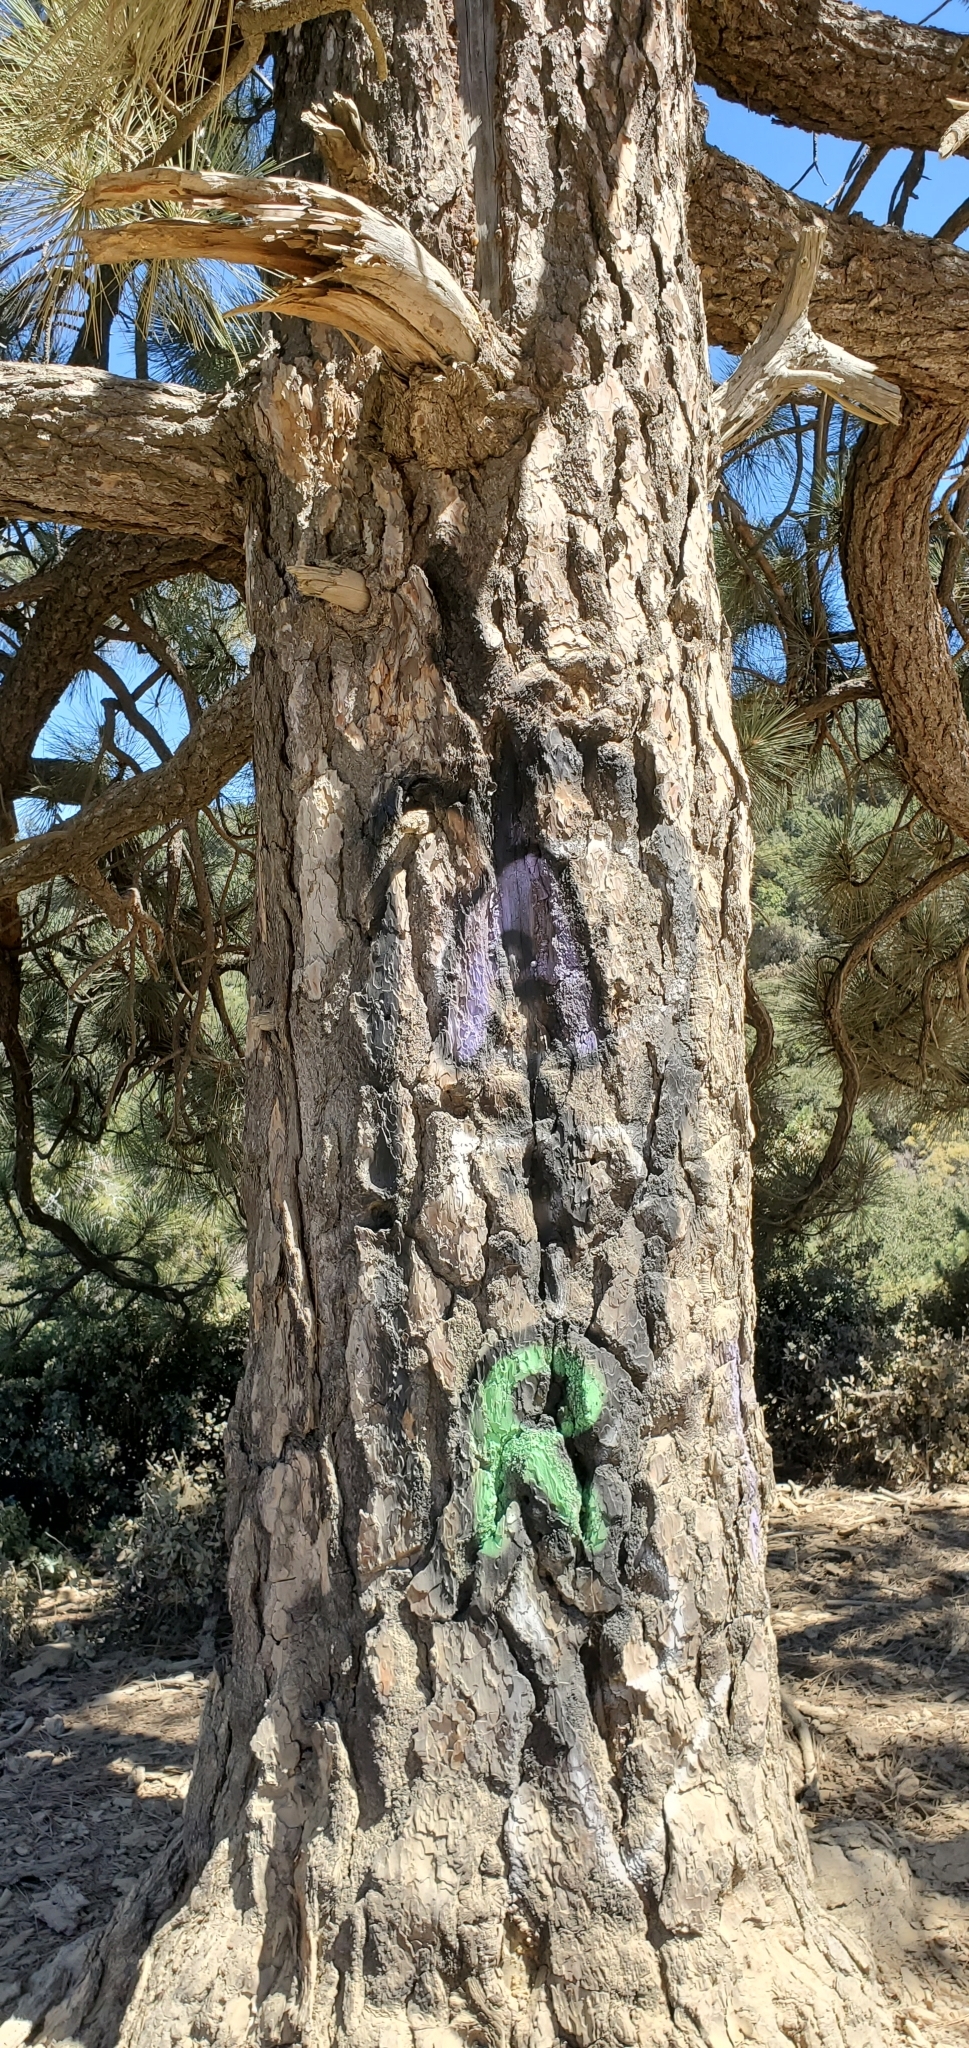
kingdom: Plantae
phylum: Tracheophyta
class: Pinopsida
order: Pinales
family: Pinaceae
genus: Pinus
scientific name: Pinus coulteri
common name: Coulter pine
